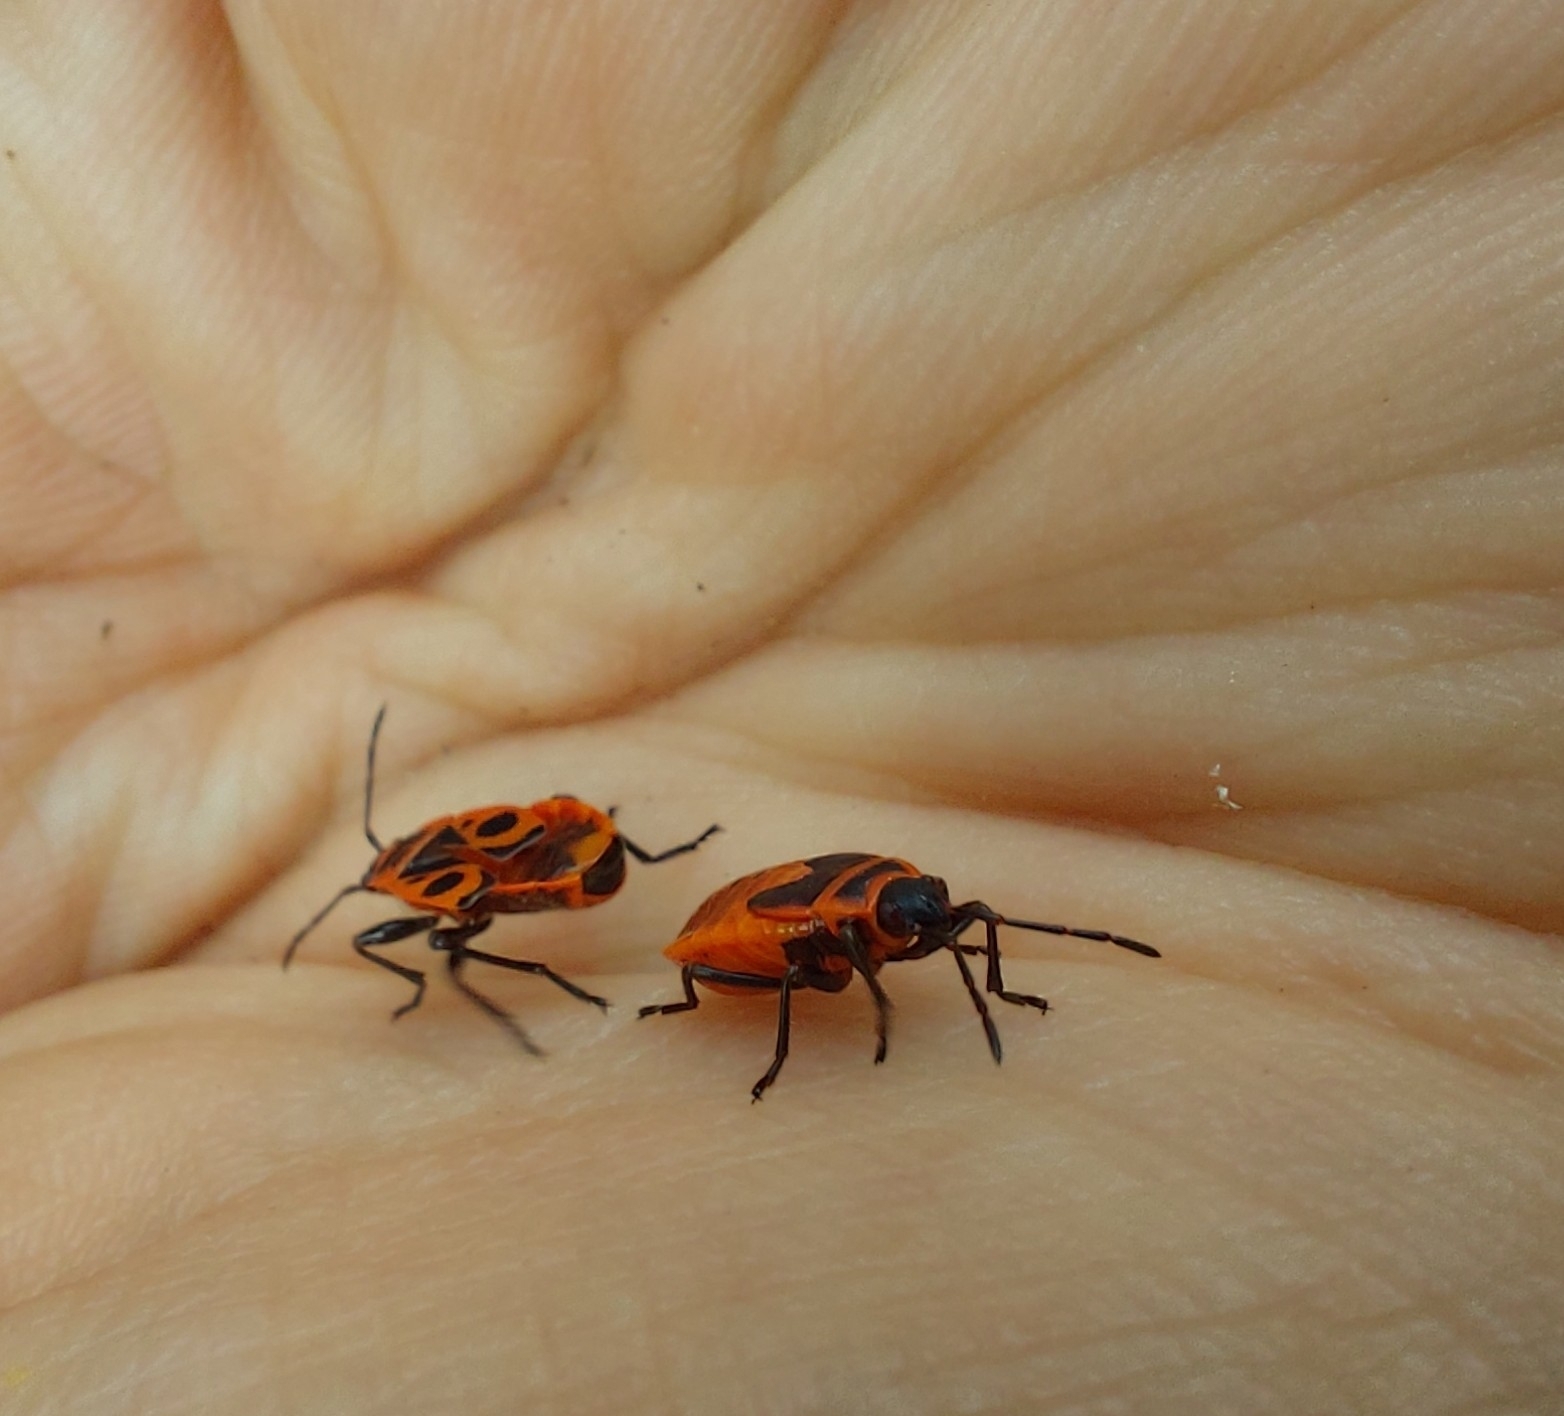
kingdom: Animalia
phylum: Arthropoda
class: Insecta
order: Hemiptera
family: Pyrrhocoridae
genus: Pyrrhocoris
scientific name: Pyrrhocoris apterus
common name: Firebug
